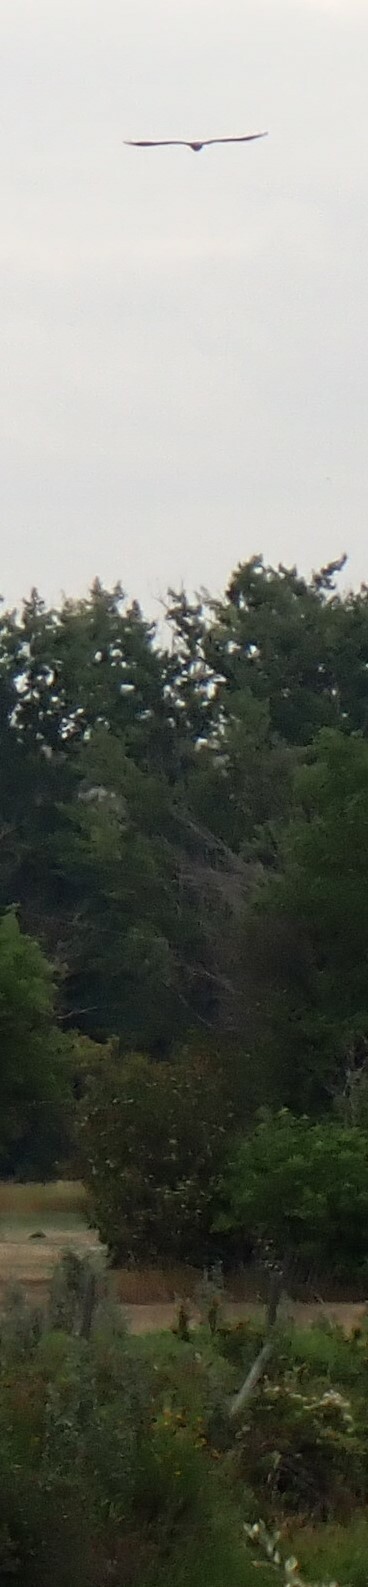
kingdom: Animalia
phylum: Chordata
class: Aves
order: Accipitriformes
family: Pandionidae
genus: Pandion
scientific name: Pandion haliaetus
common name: Osprey
